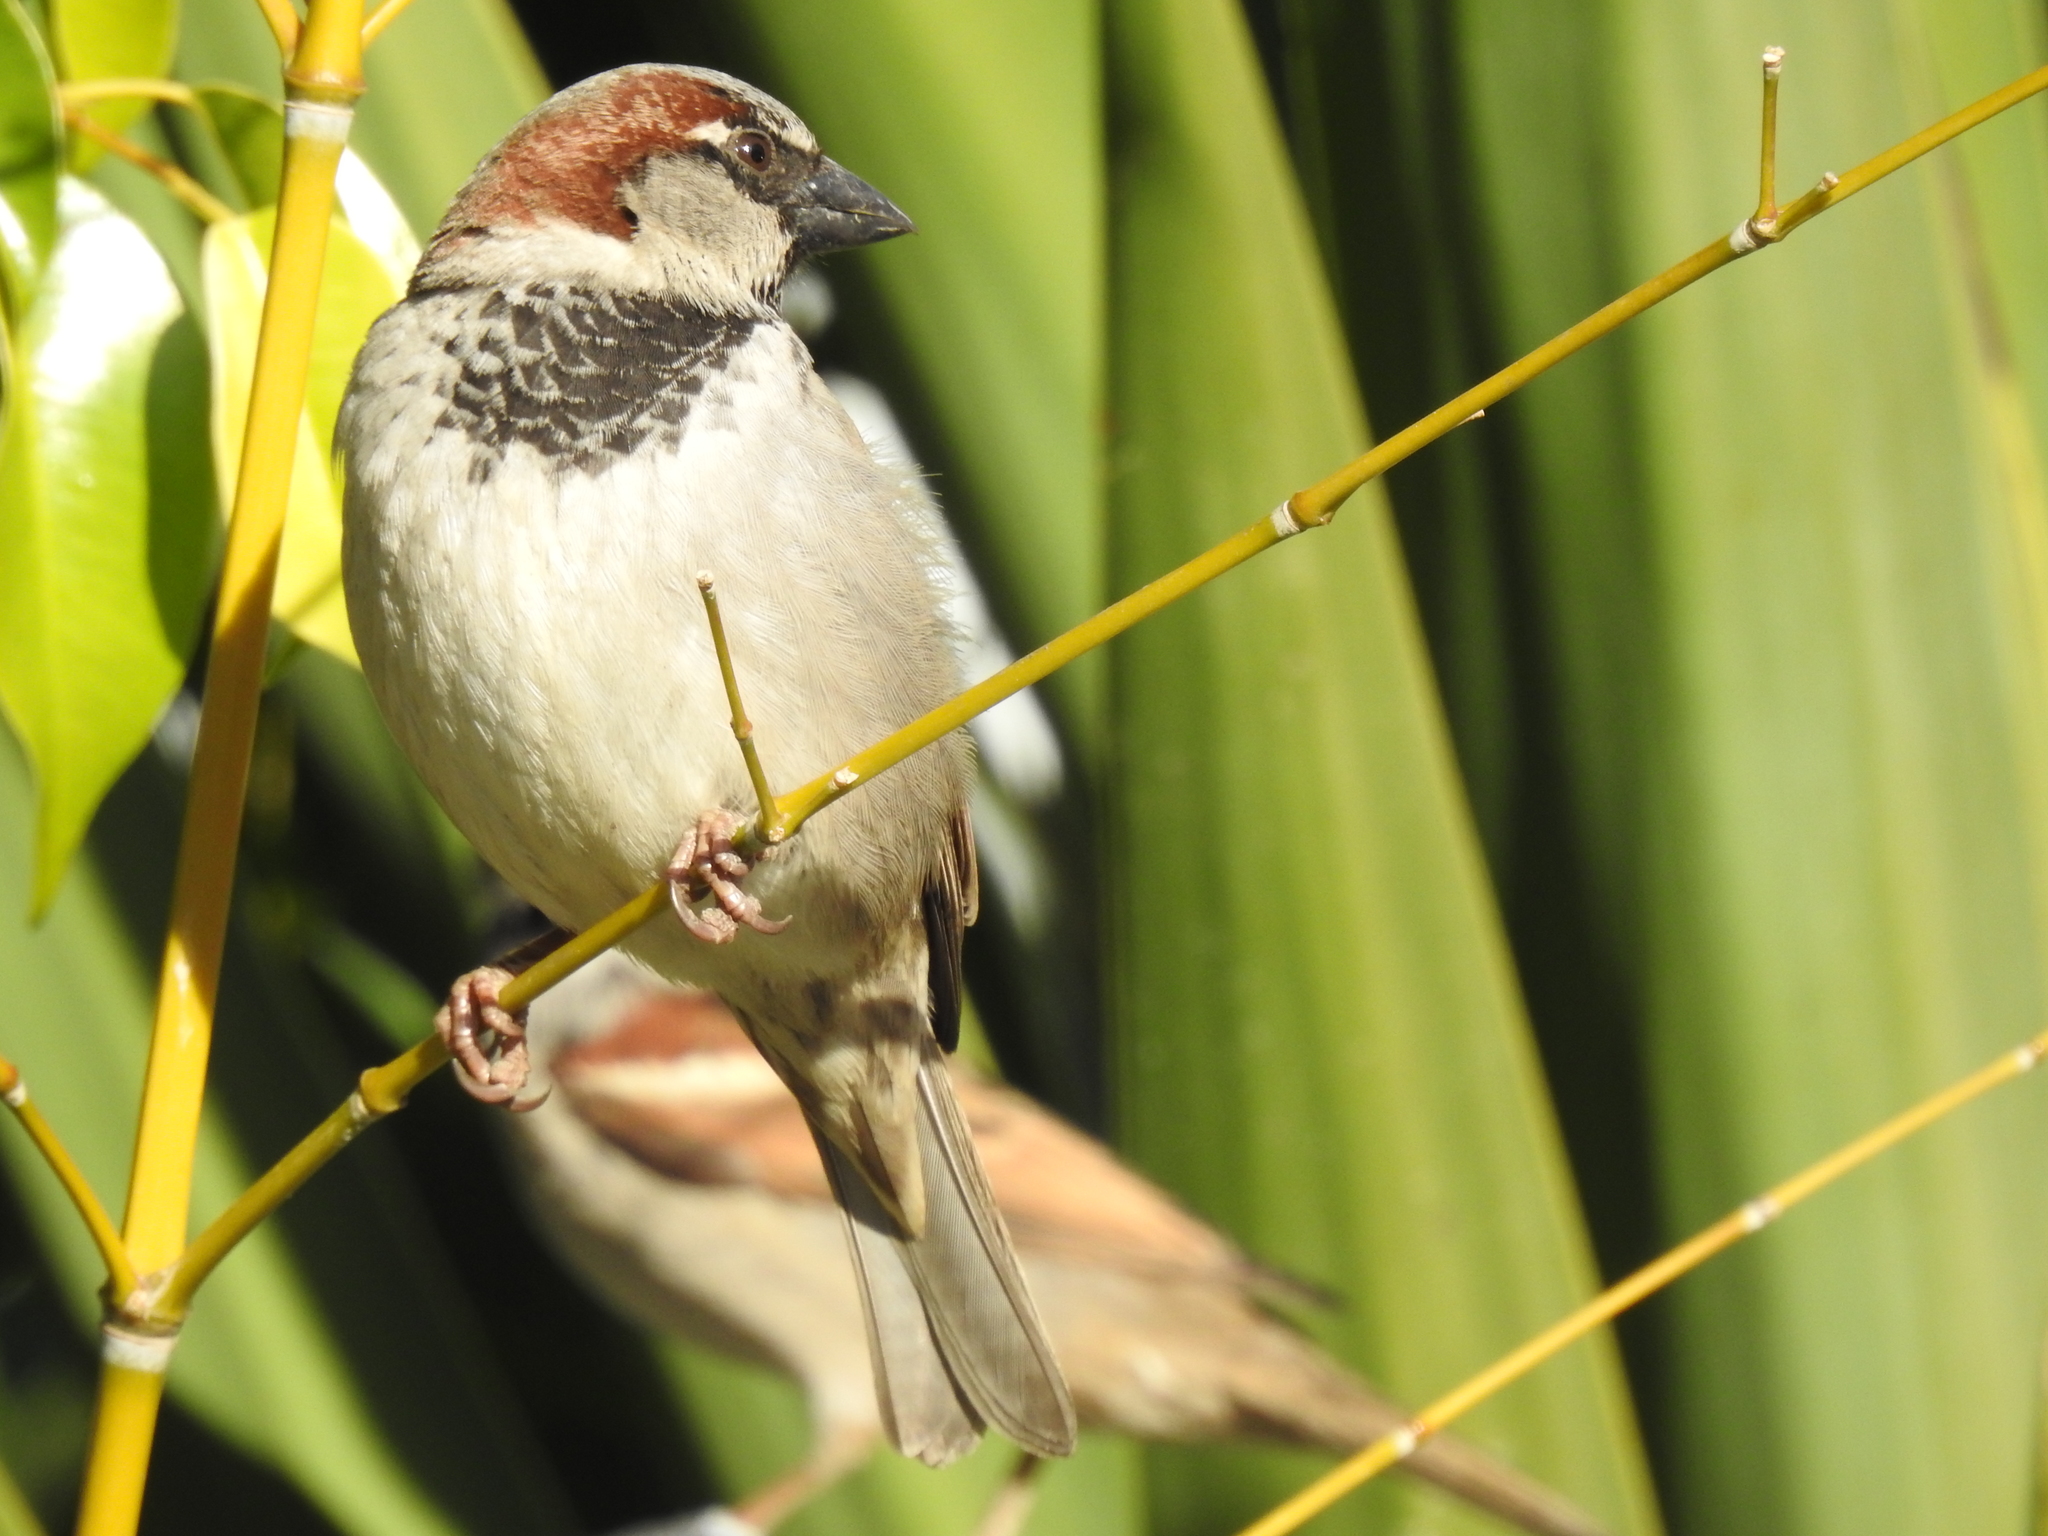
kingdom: Animalia
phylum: Chordata
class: Aves
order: Passeriformes
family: Passeridae
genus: Passer
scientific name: Passer domesticus
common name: House sparrow
